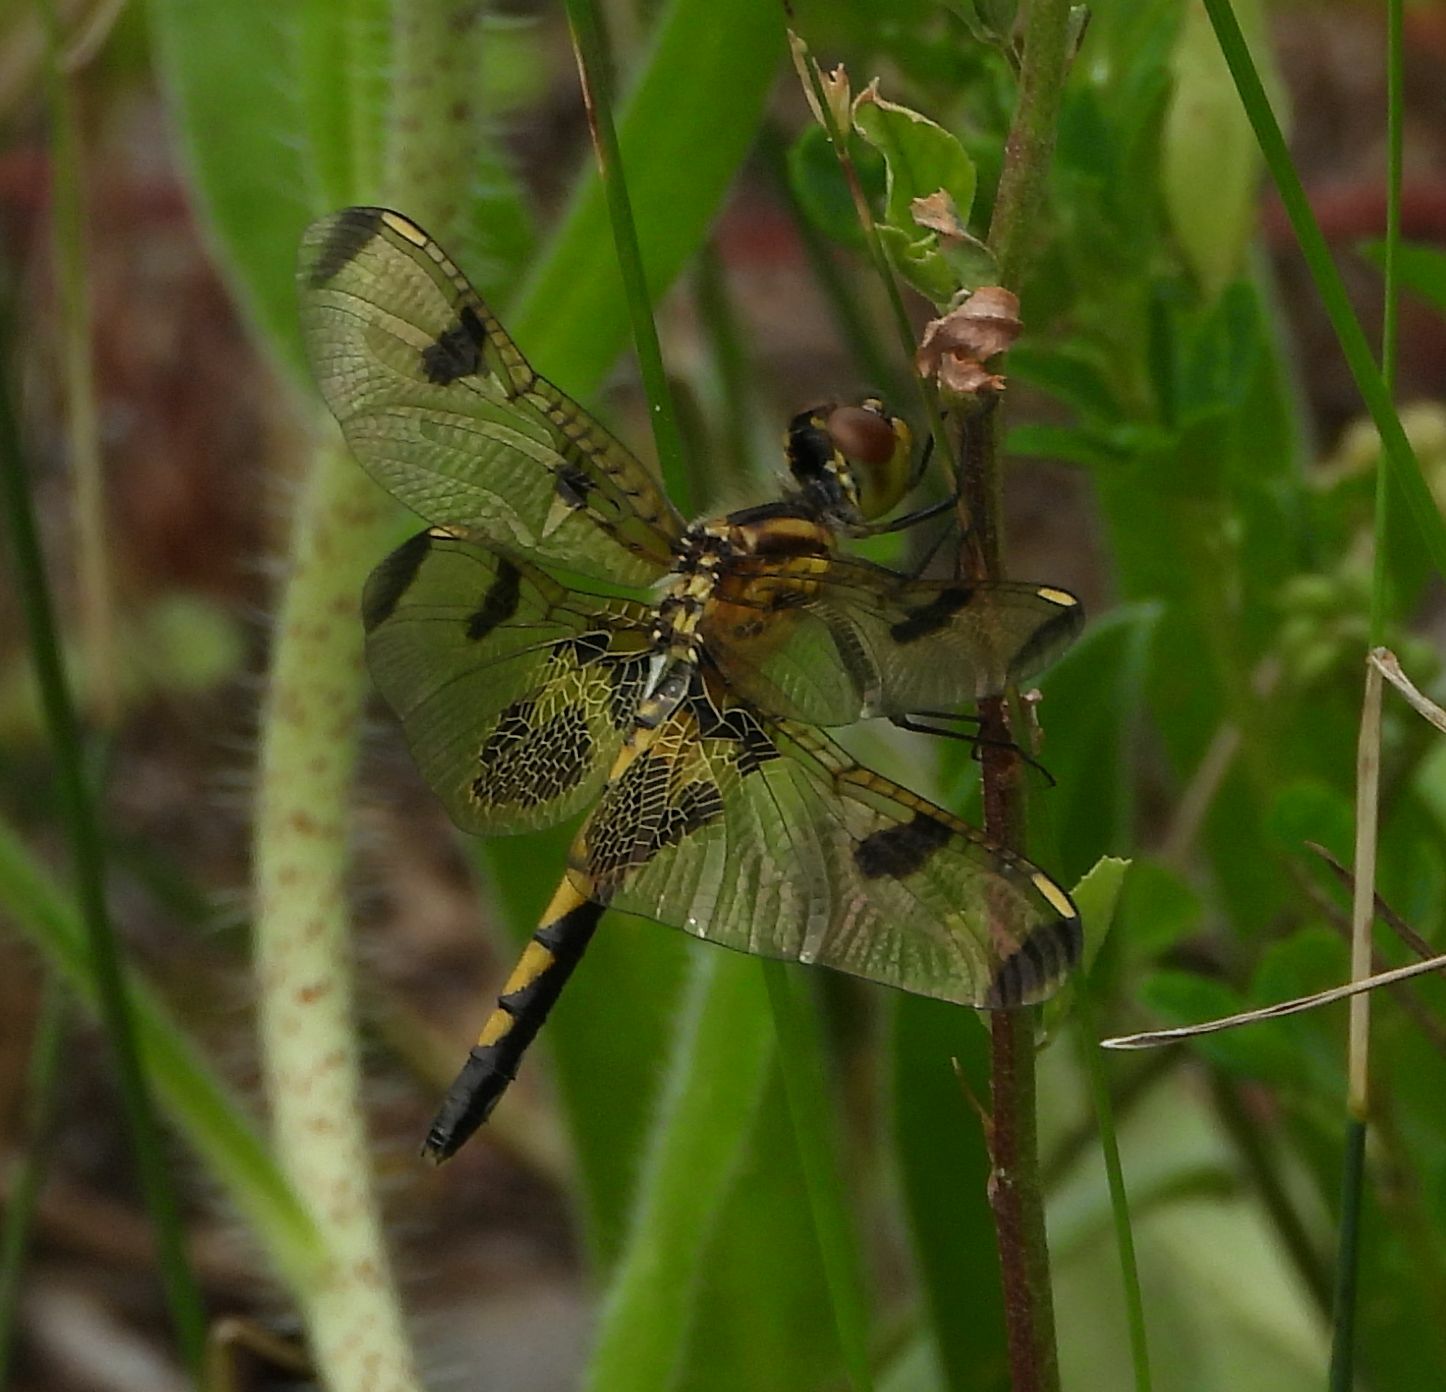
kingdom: Animalia
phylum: Arthropoda
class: Insecta
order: Odonata
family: Libellulidae
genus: Celithemis
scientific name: Celithemis elisa
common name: Calico pennant
